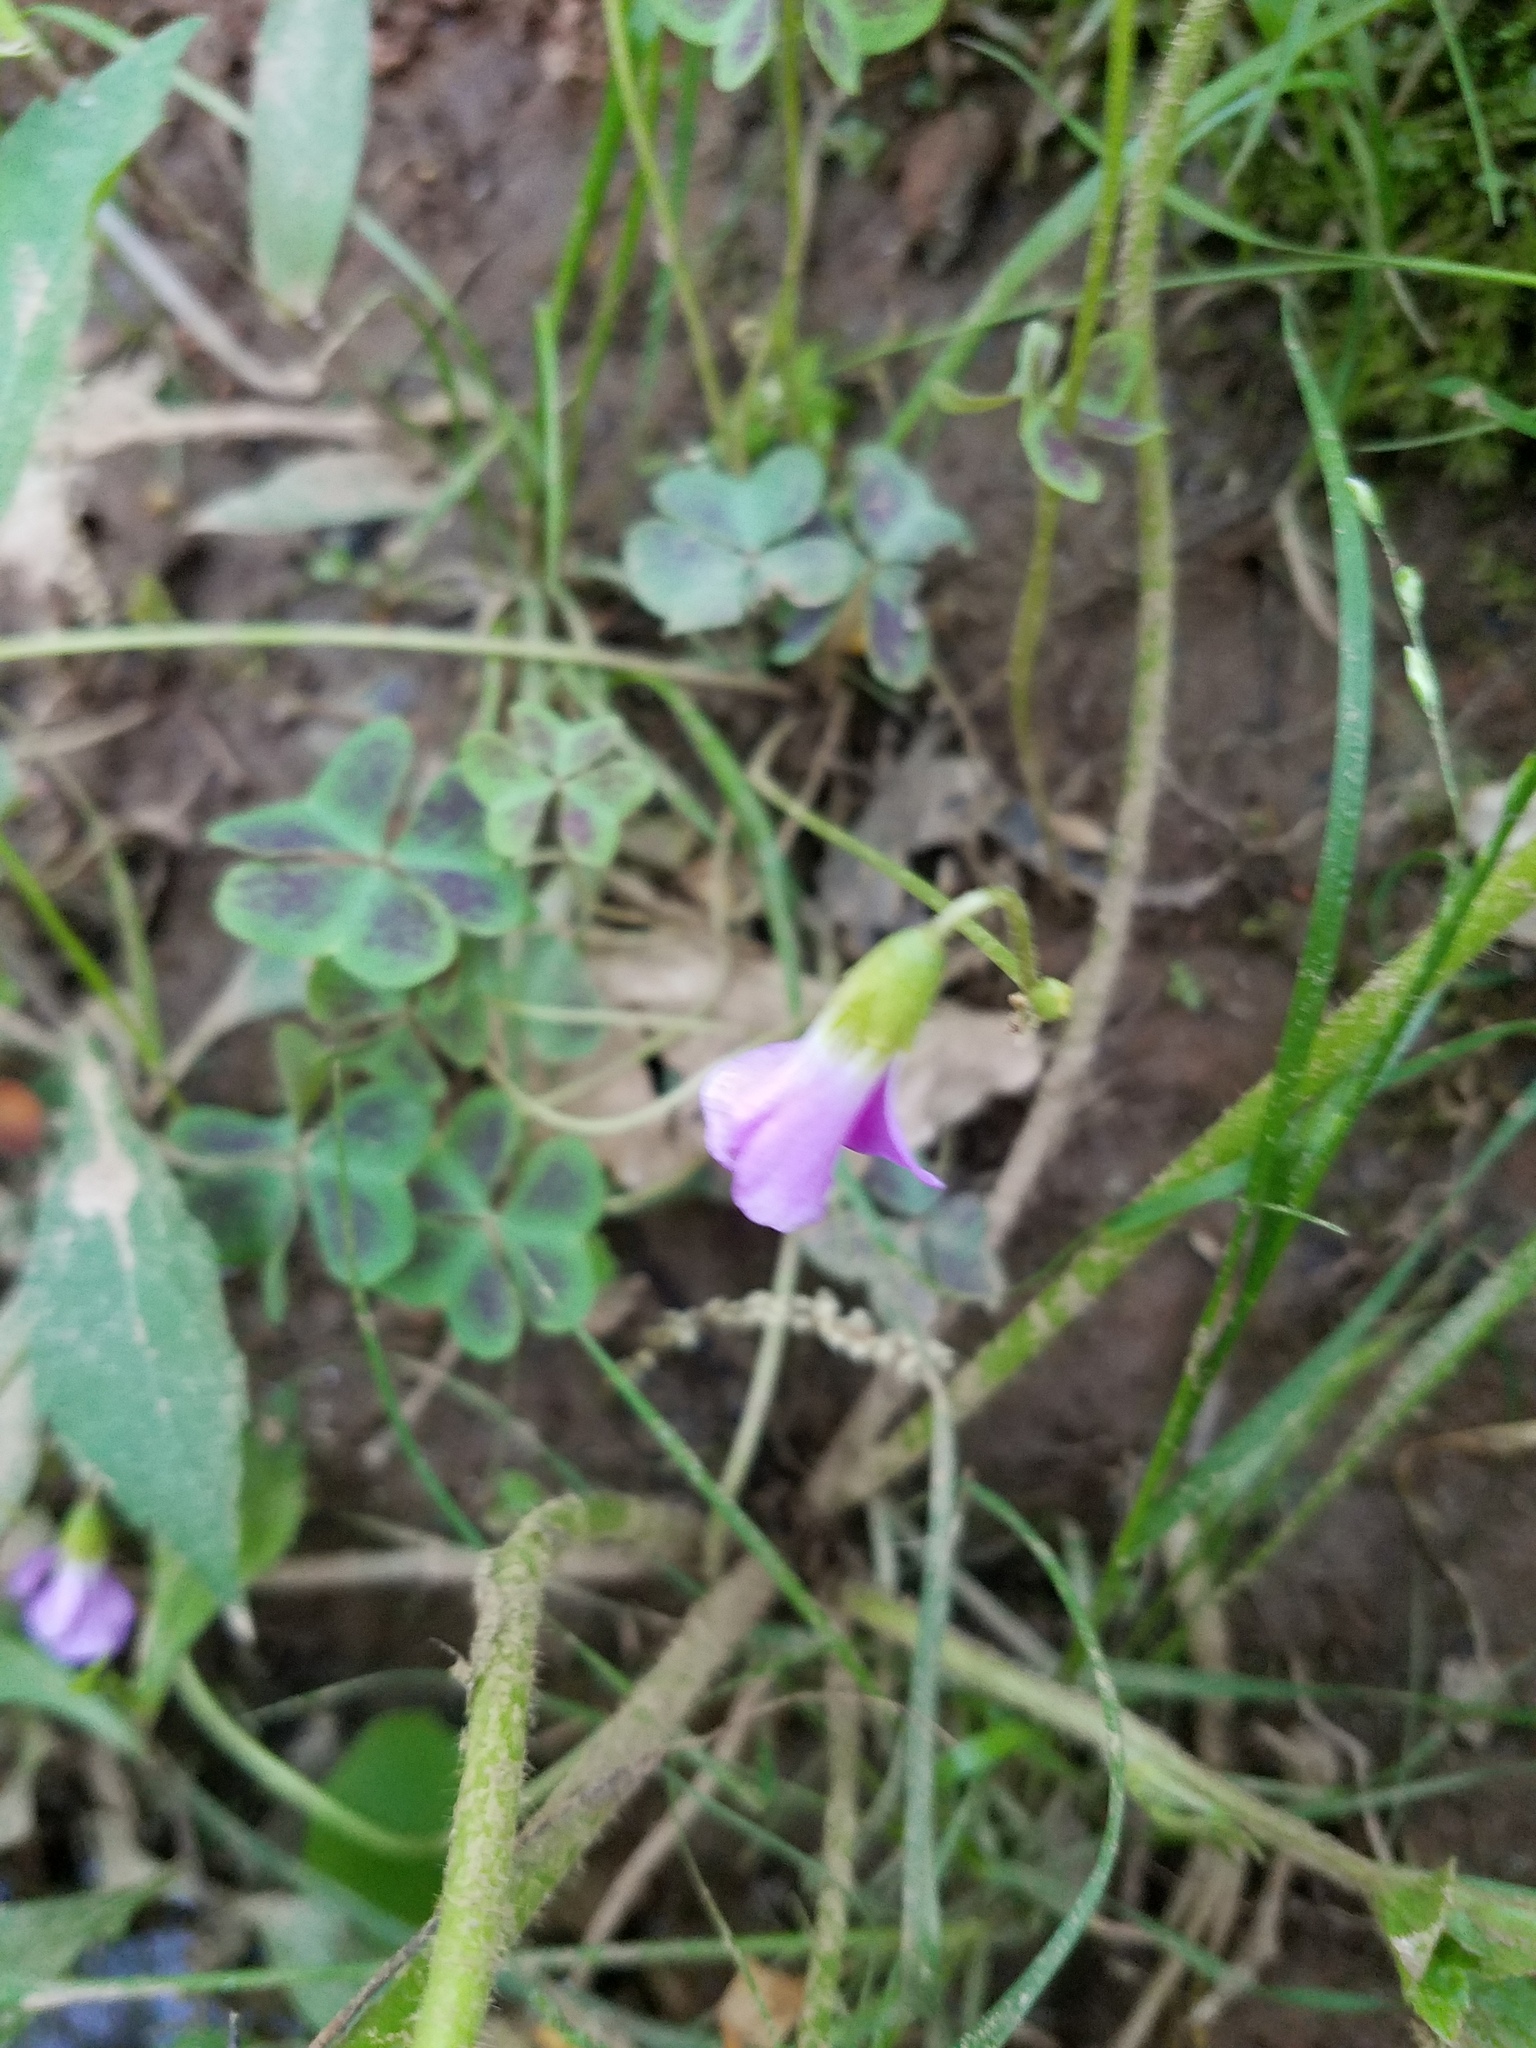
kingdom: Plantae
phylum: Tracheophyta
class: Magnoliopsida
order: Oxalidales
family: Oxalidaceae
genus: Oxalis
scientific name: Oxalis violacea
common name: Violet wood-sorrel
